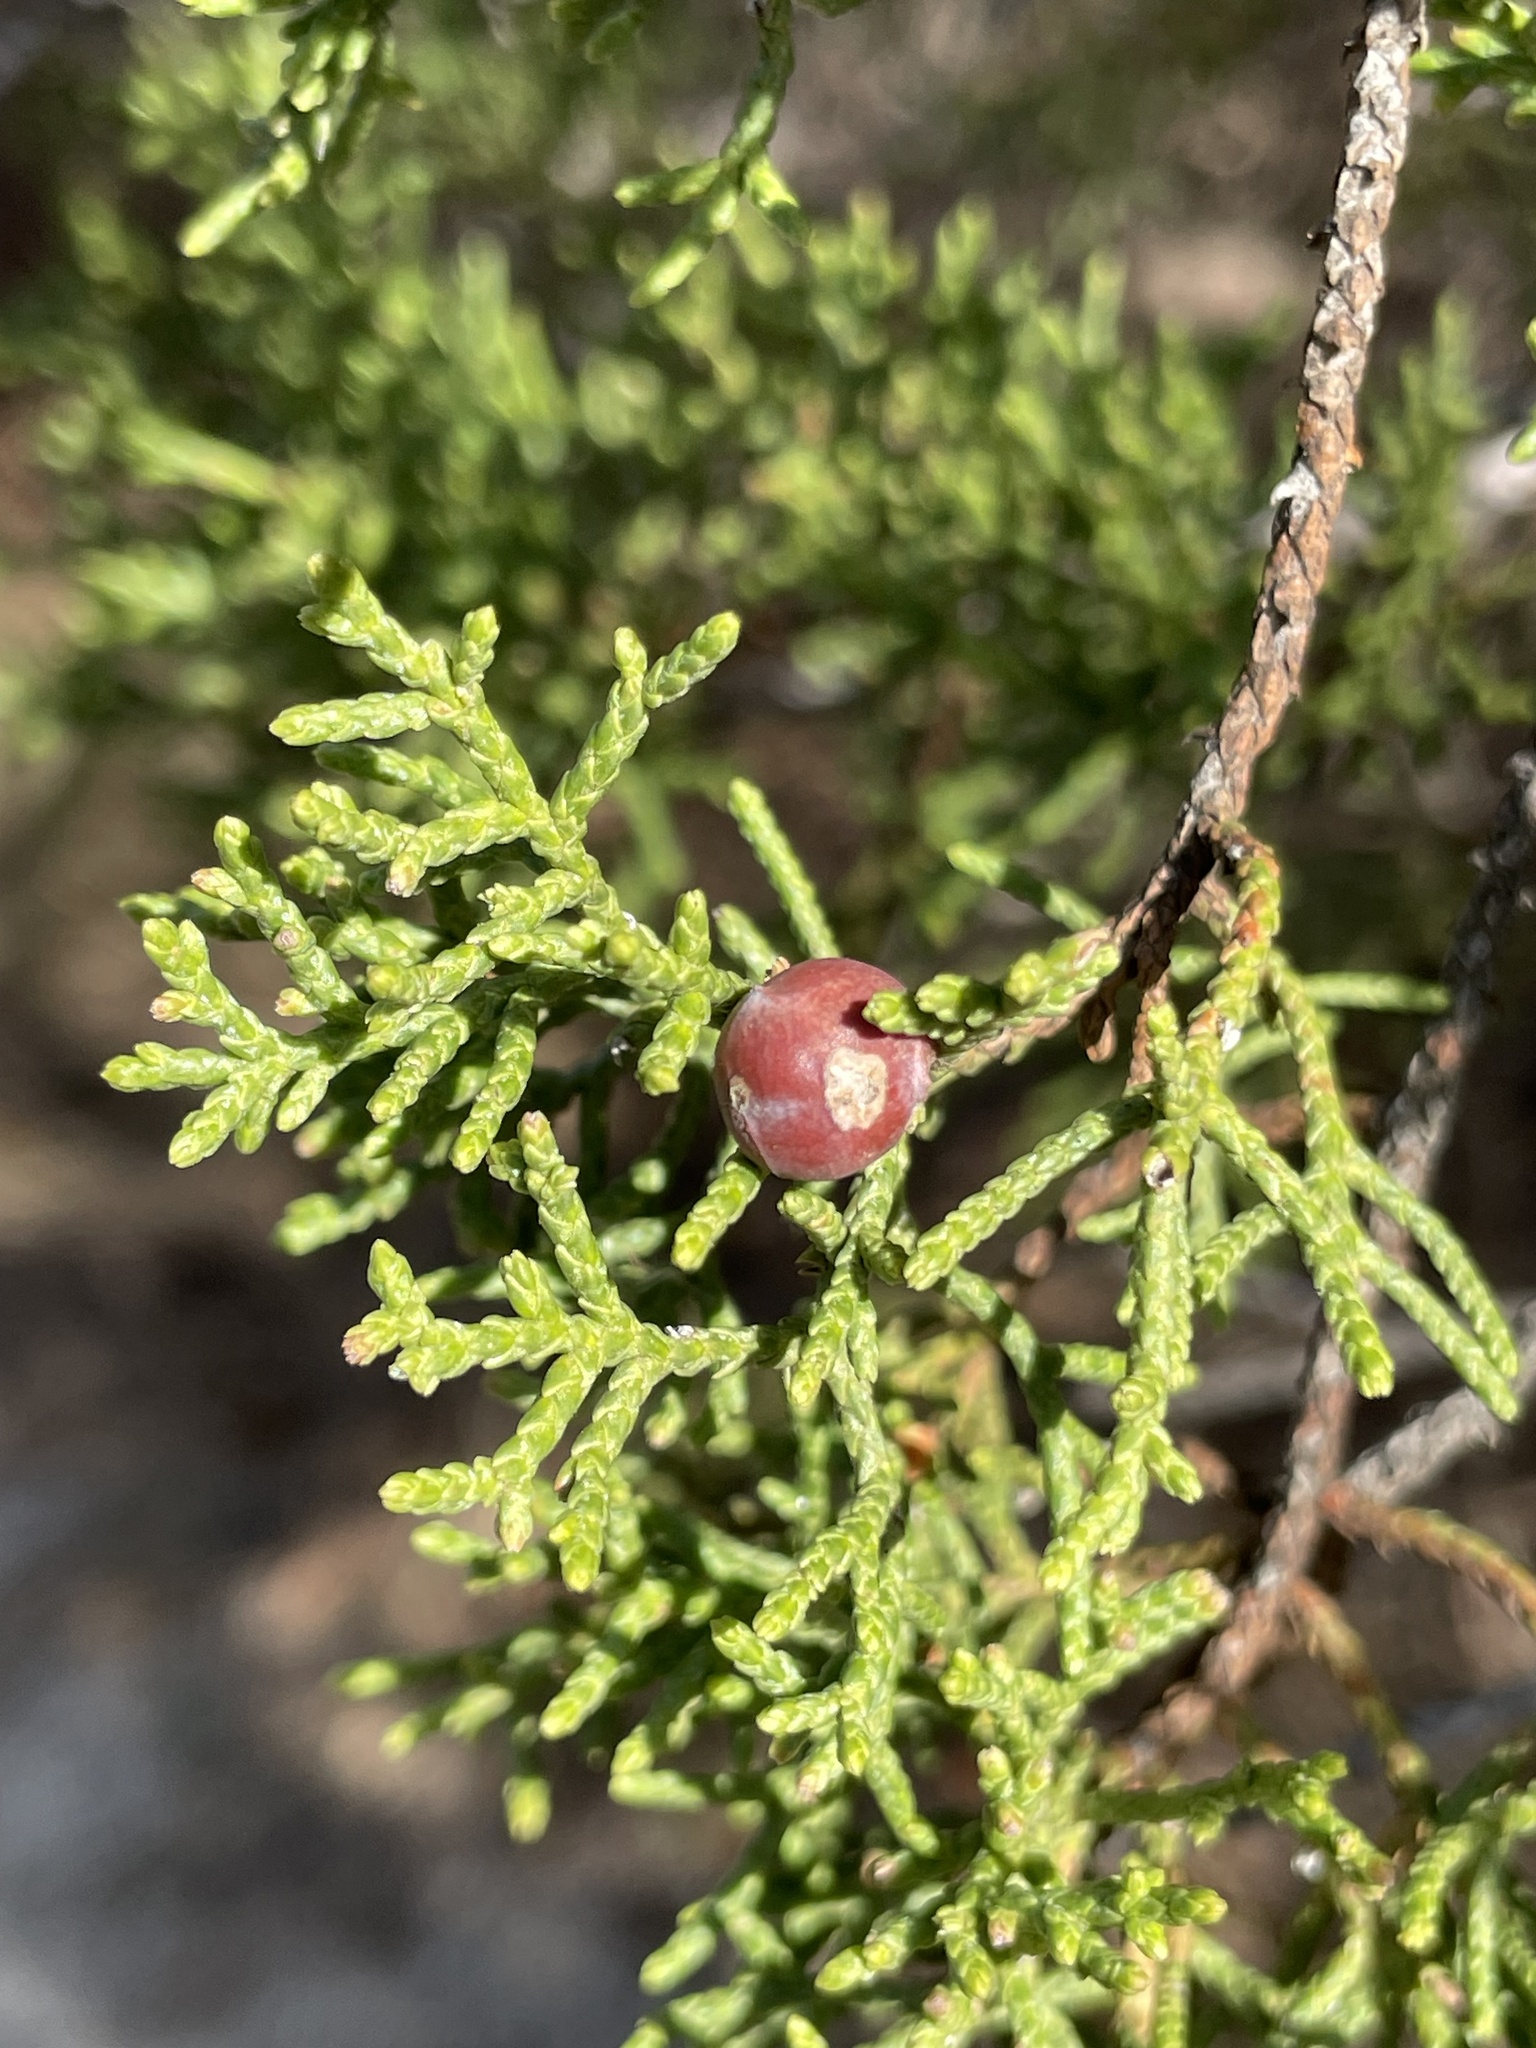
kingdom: Plantae
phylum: Tracheophyta
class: Pinopsida
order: Pinales
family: Cupressaceae
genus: Juniperus
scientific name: Juniperus pinchotii
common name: Pinchot juniper
